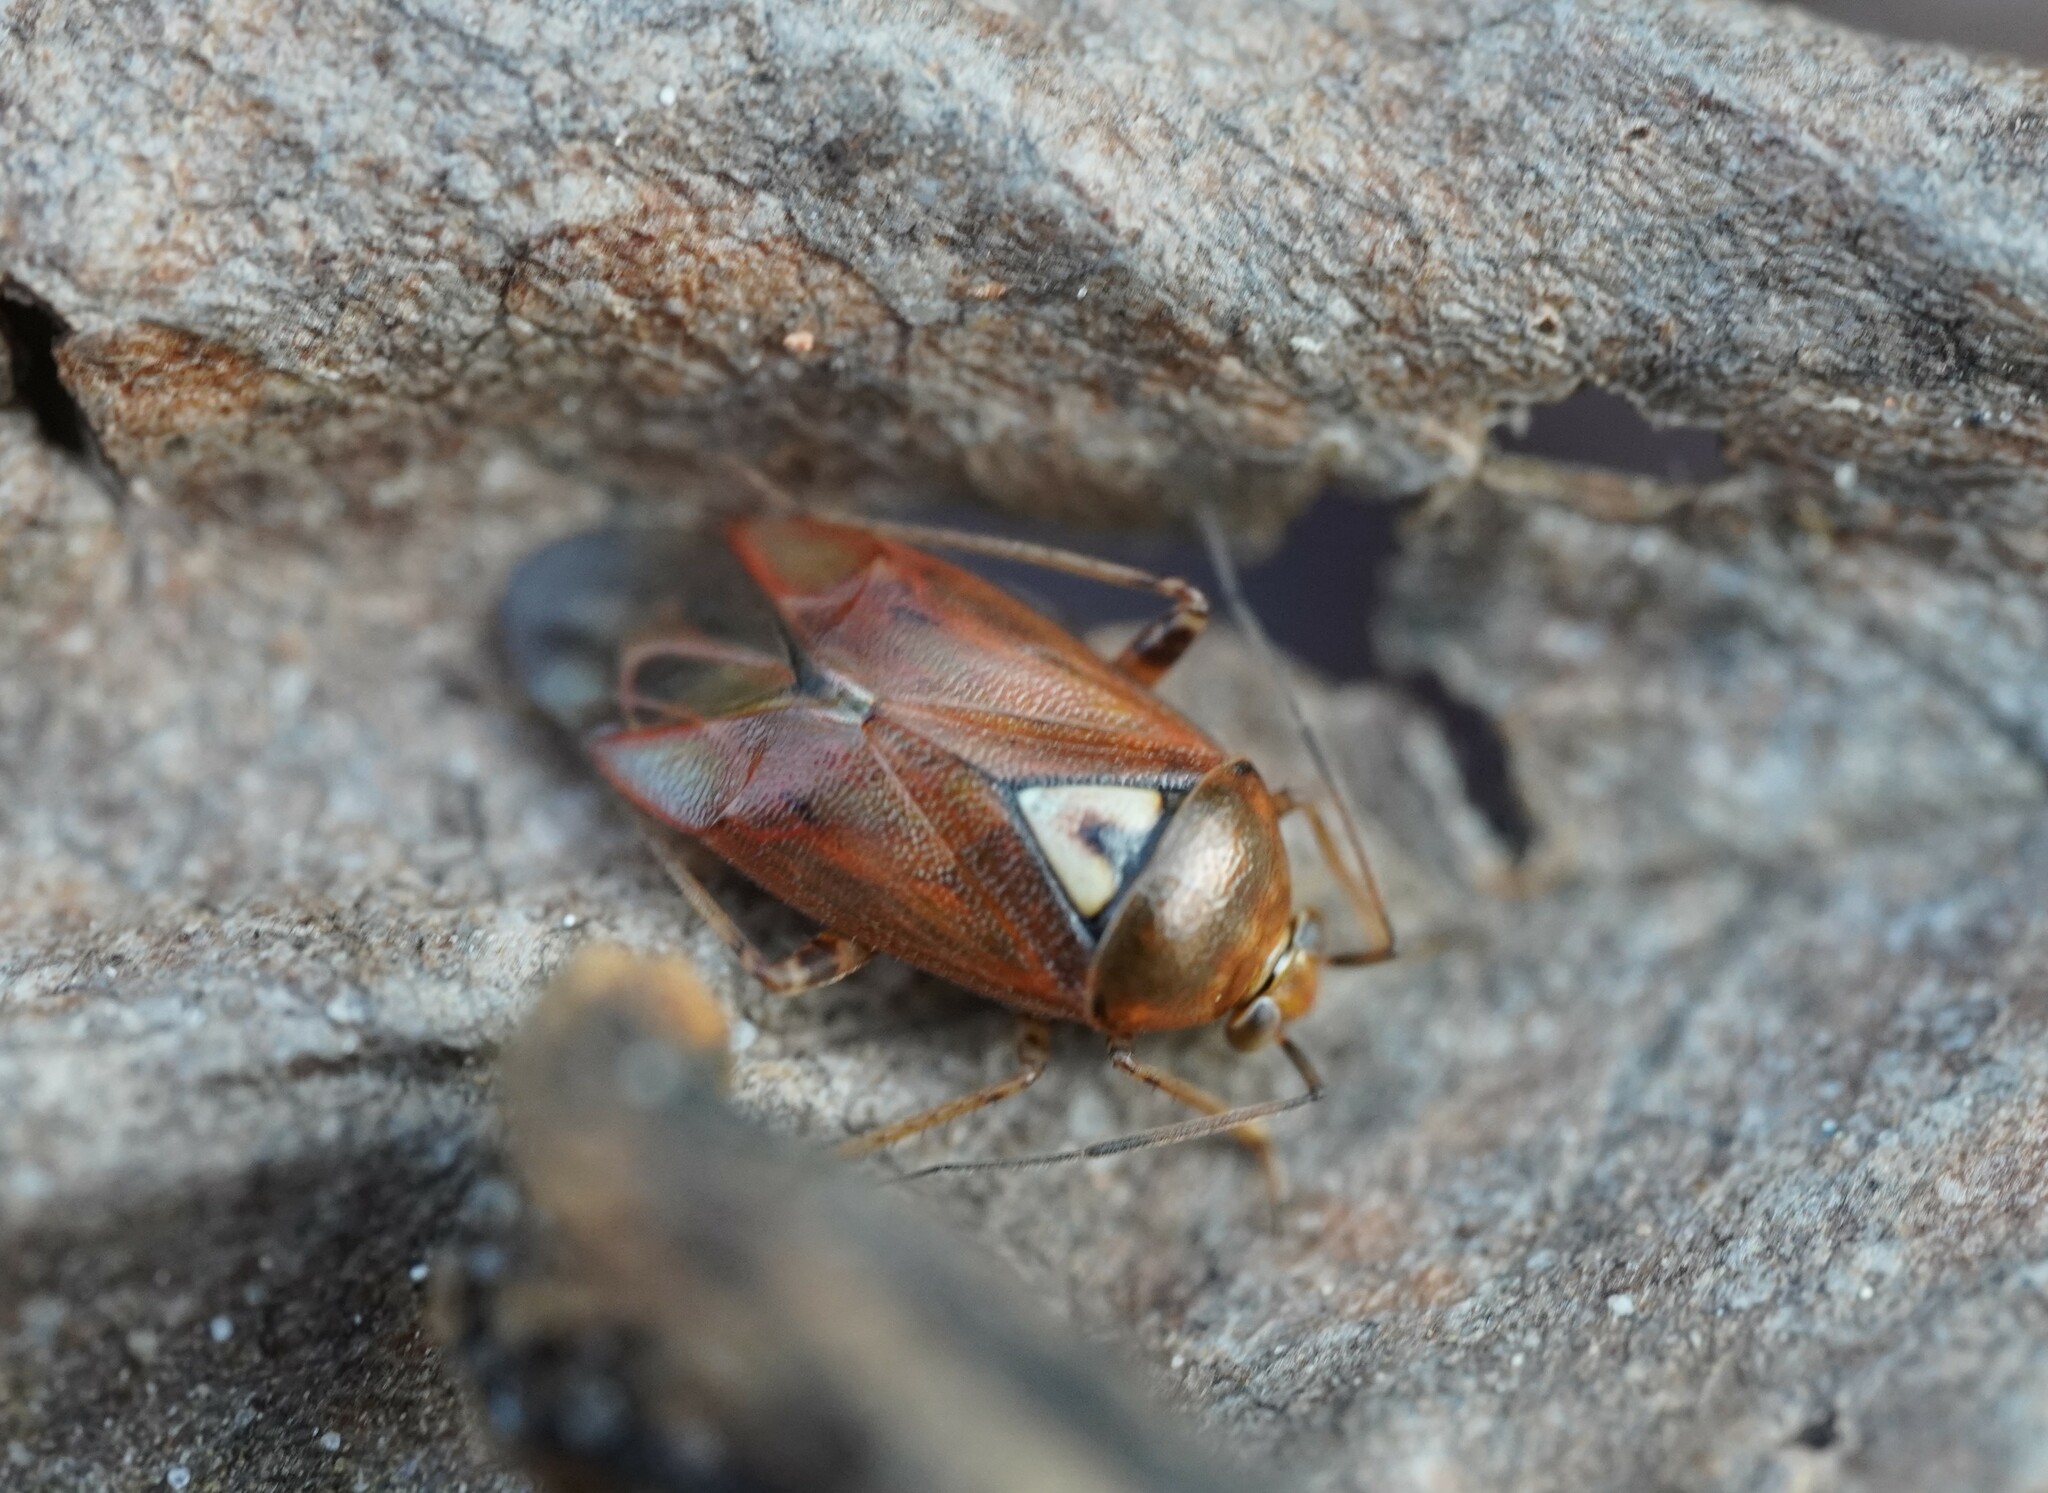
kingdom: Animalia
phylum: Arthropoda
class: Insecta
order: Hemiptera
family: Miridae
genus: Lygus
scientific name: Lygus pratensis
